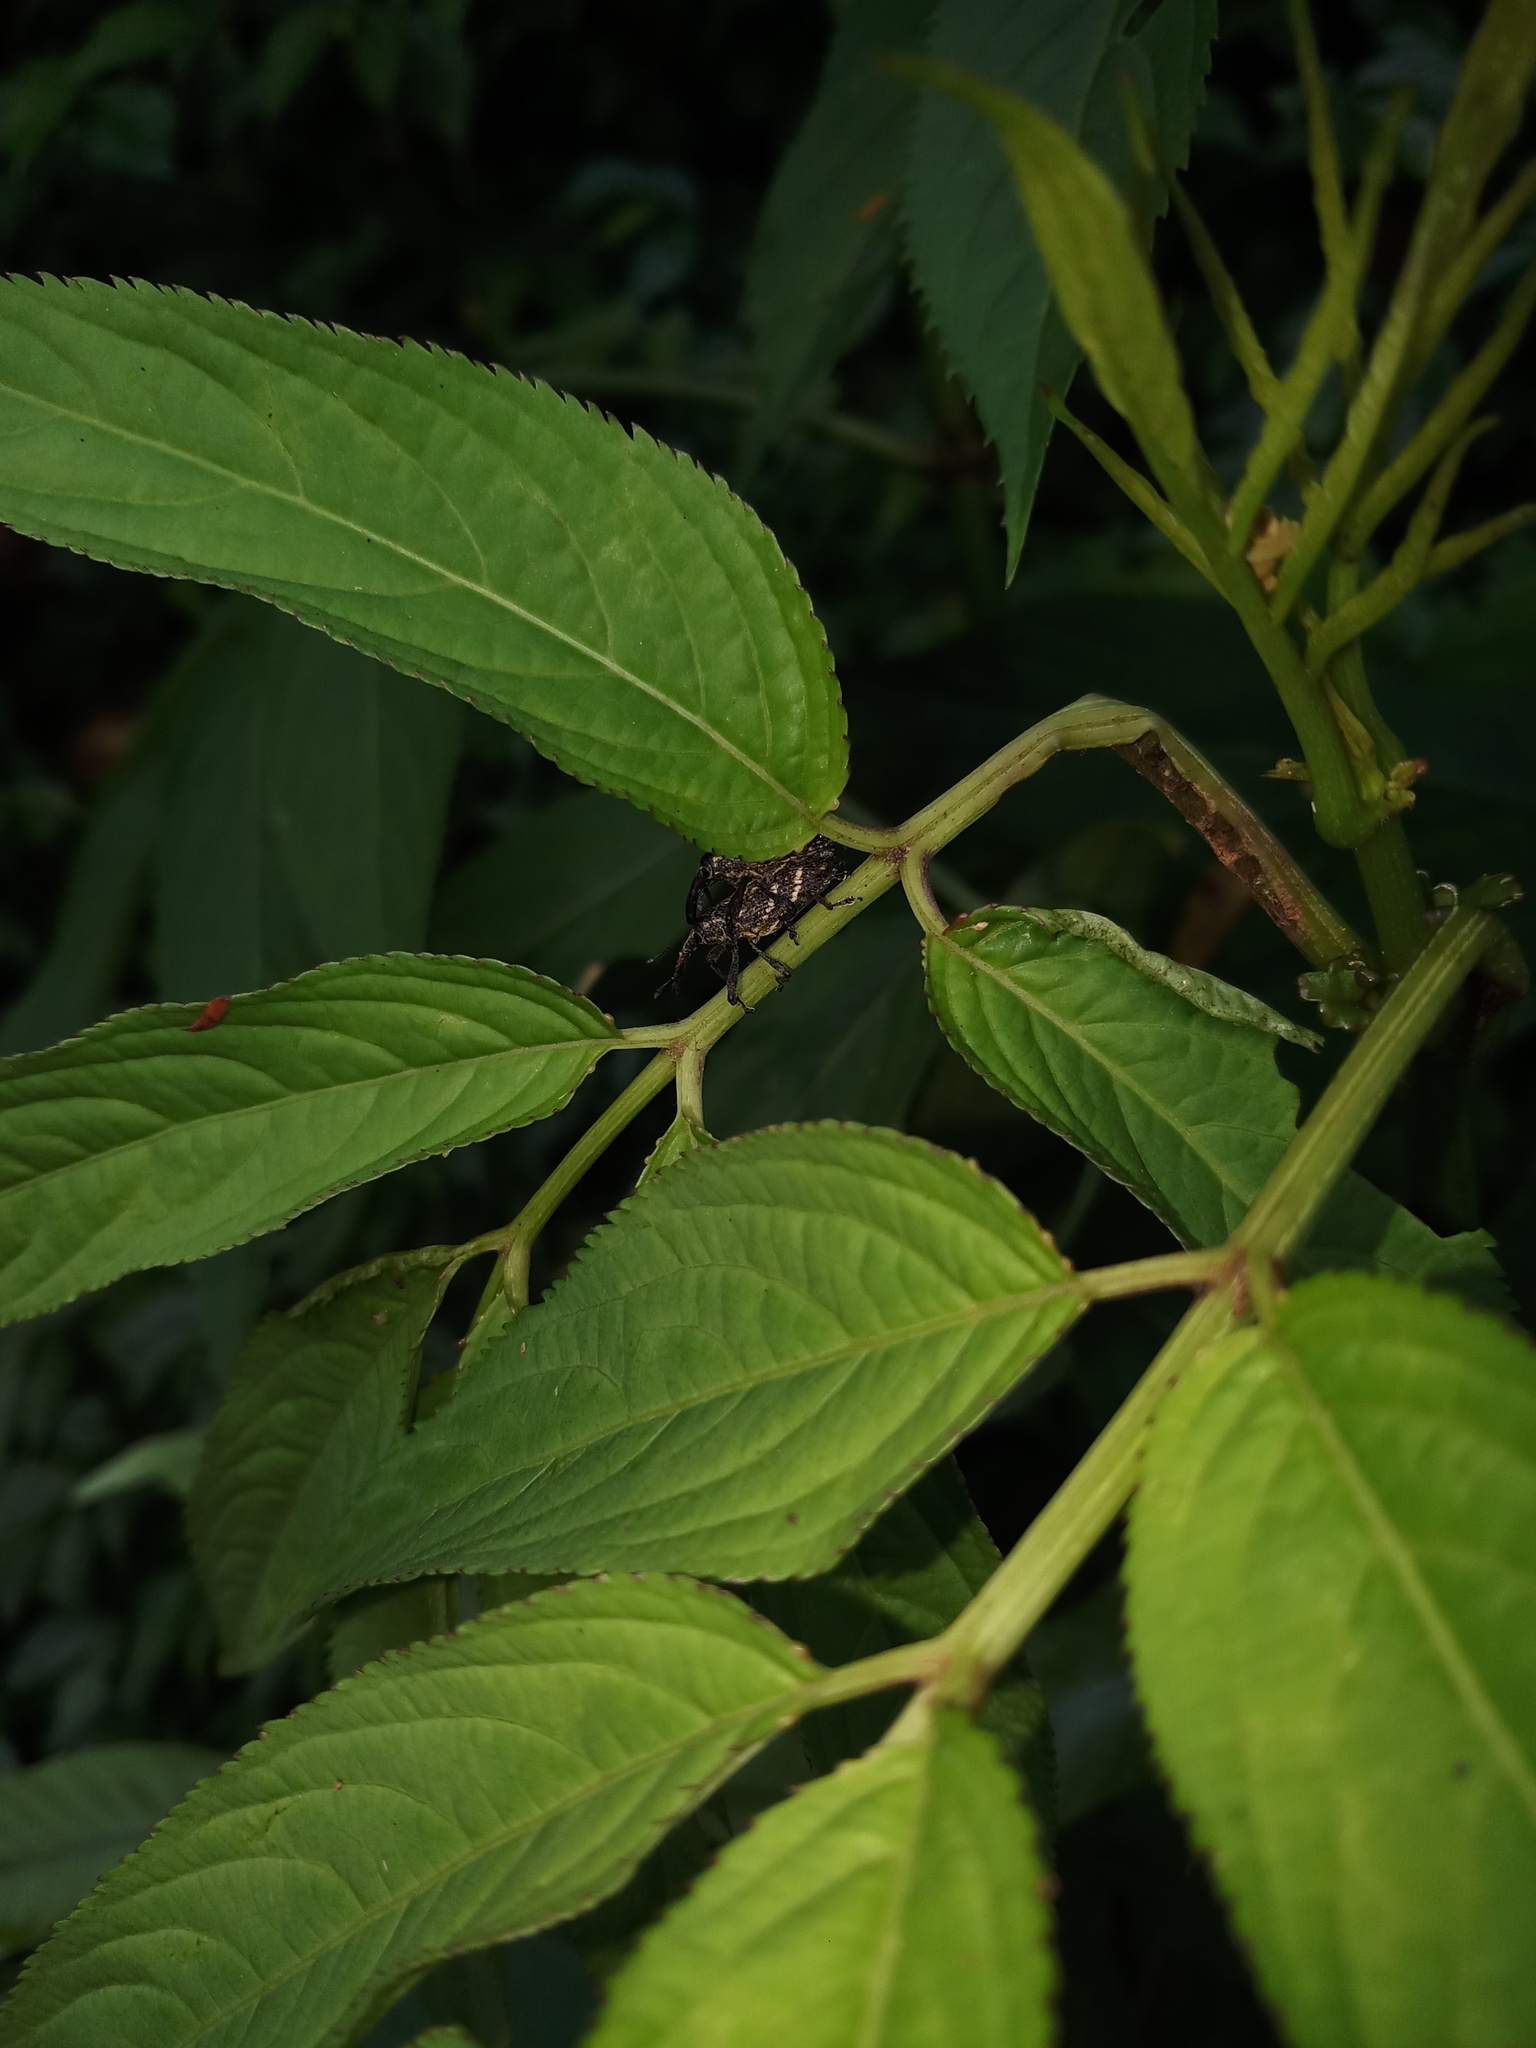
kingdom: Animalia
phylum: Arthropoda
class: Insecta
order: Coleoptera
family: Curculionidae
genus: Merus
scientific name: Merus
